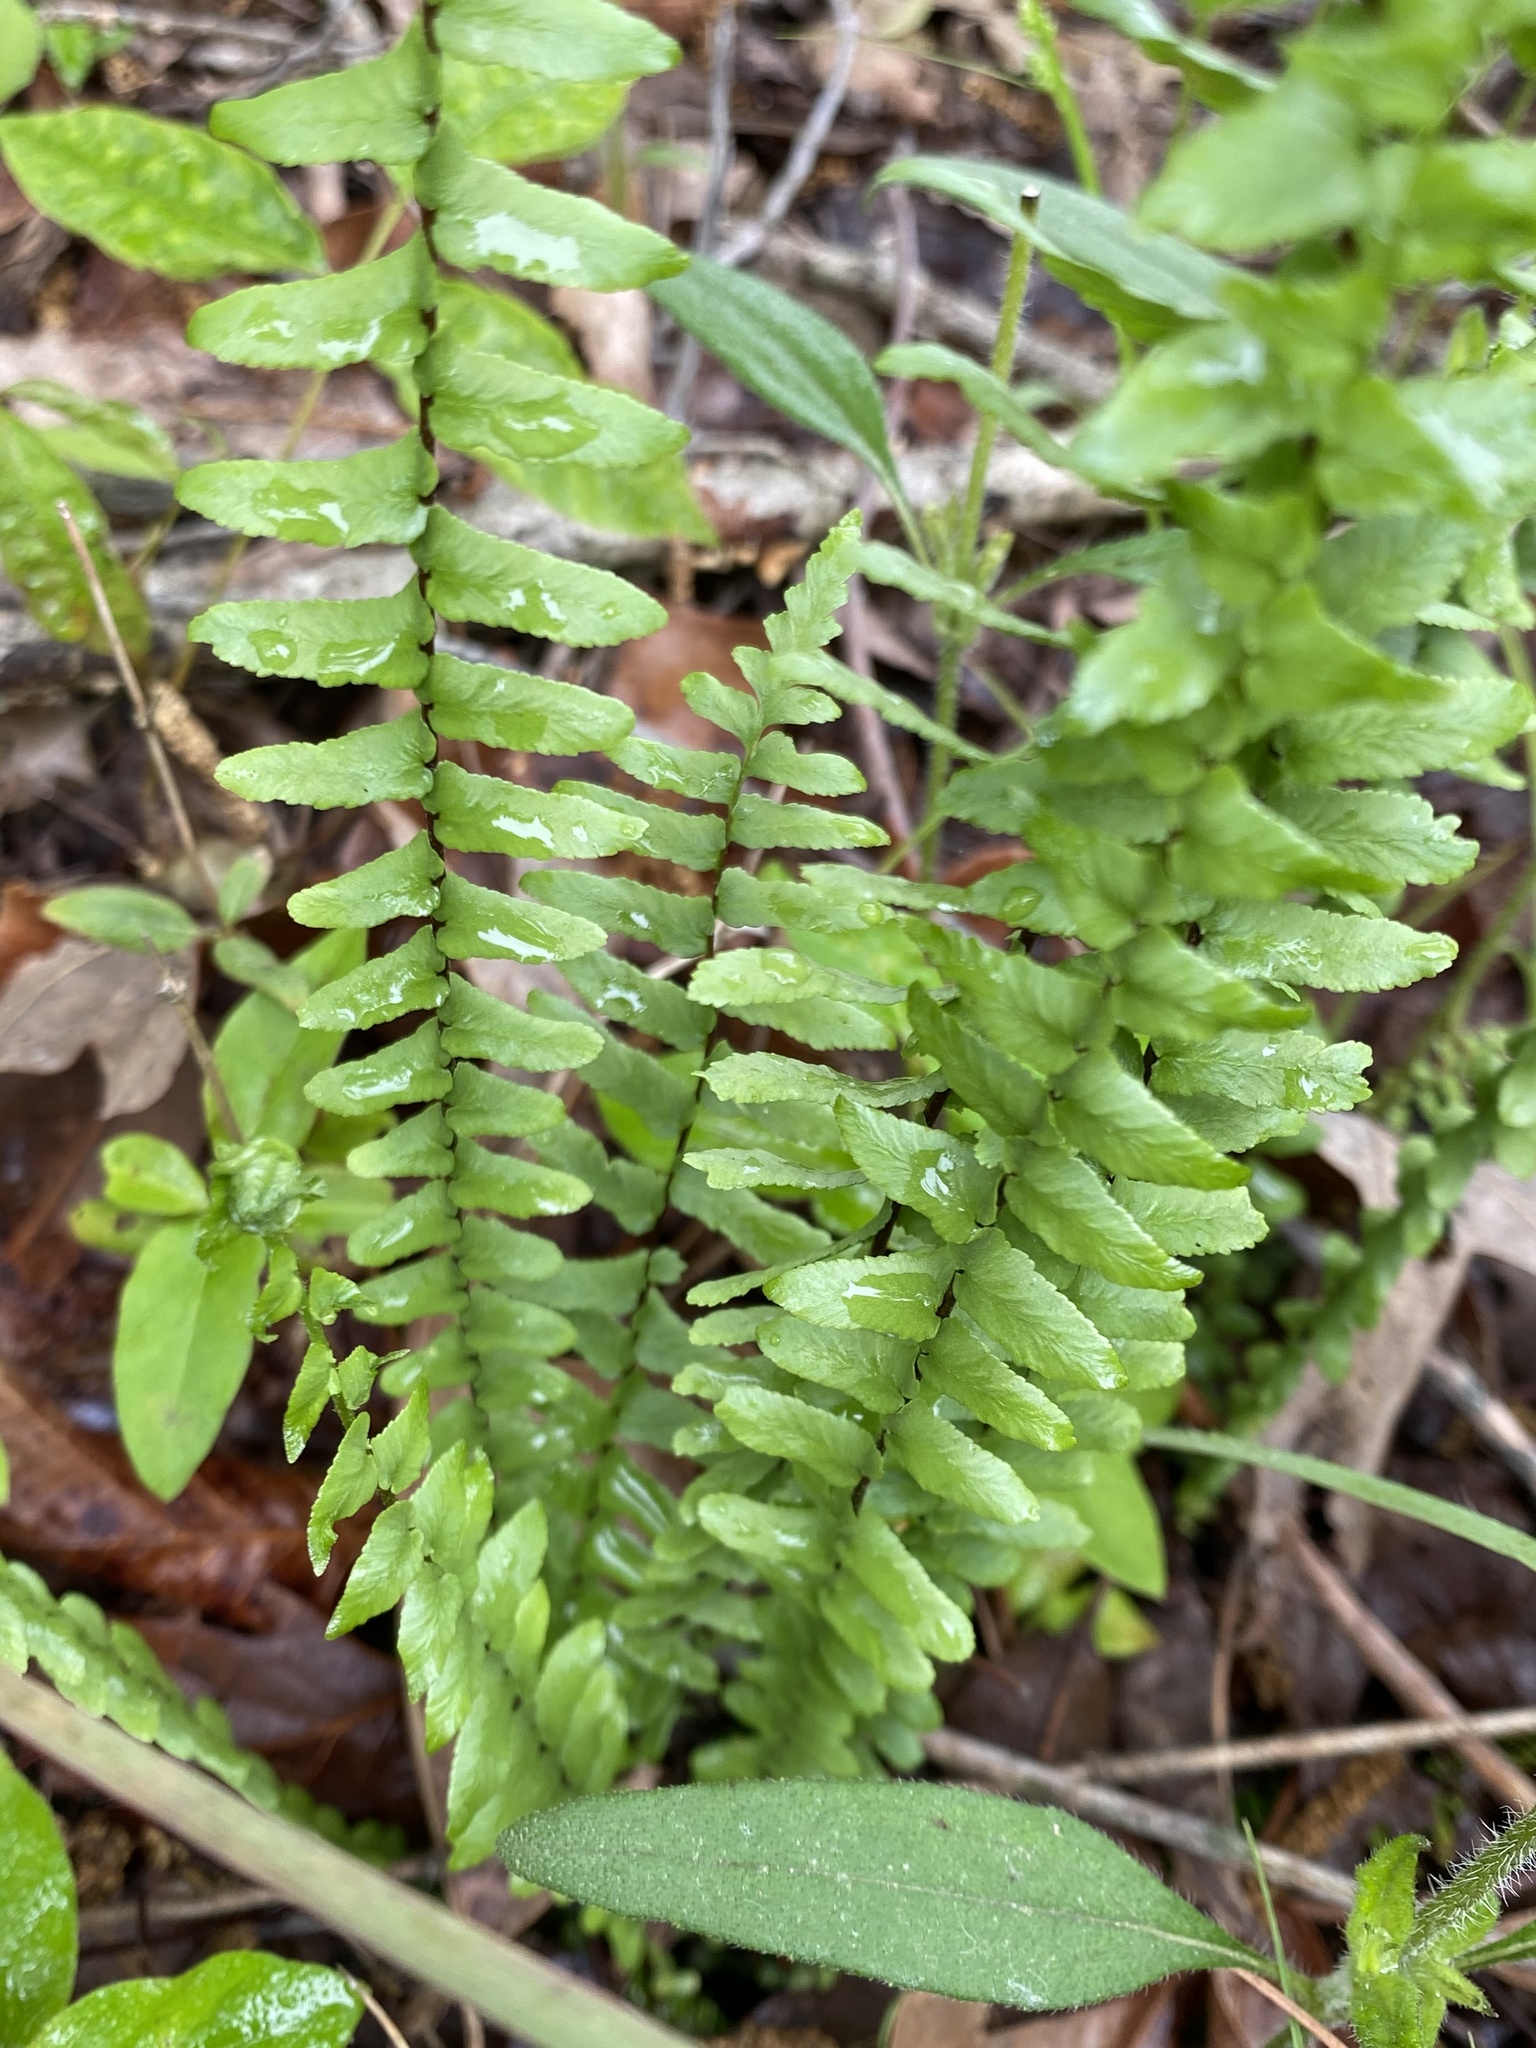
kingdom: Plantae
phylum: Tracheophyta
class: Polypodiopsida
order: Polypodiales
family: Aspleniaceae
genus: Asplenium
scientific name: Asplenium platyneuron
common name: Ebony spleenwort
